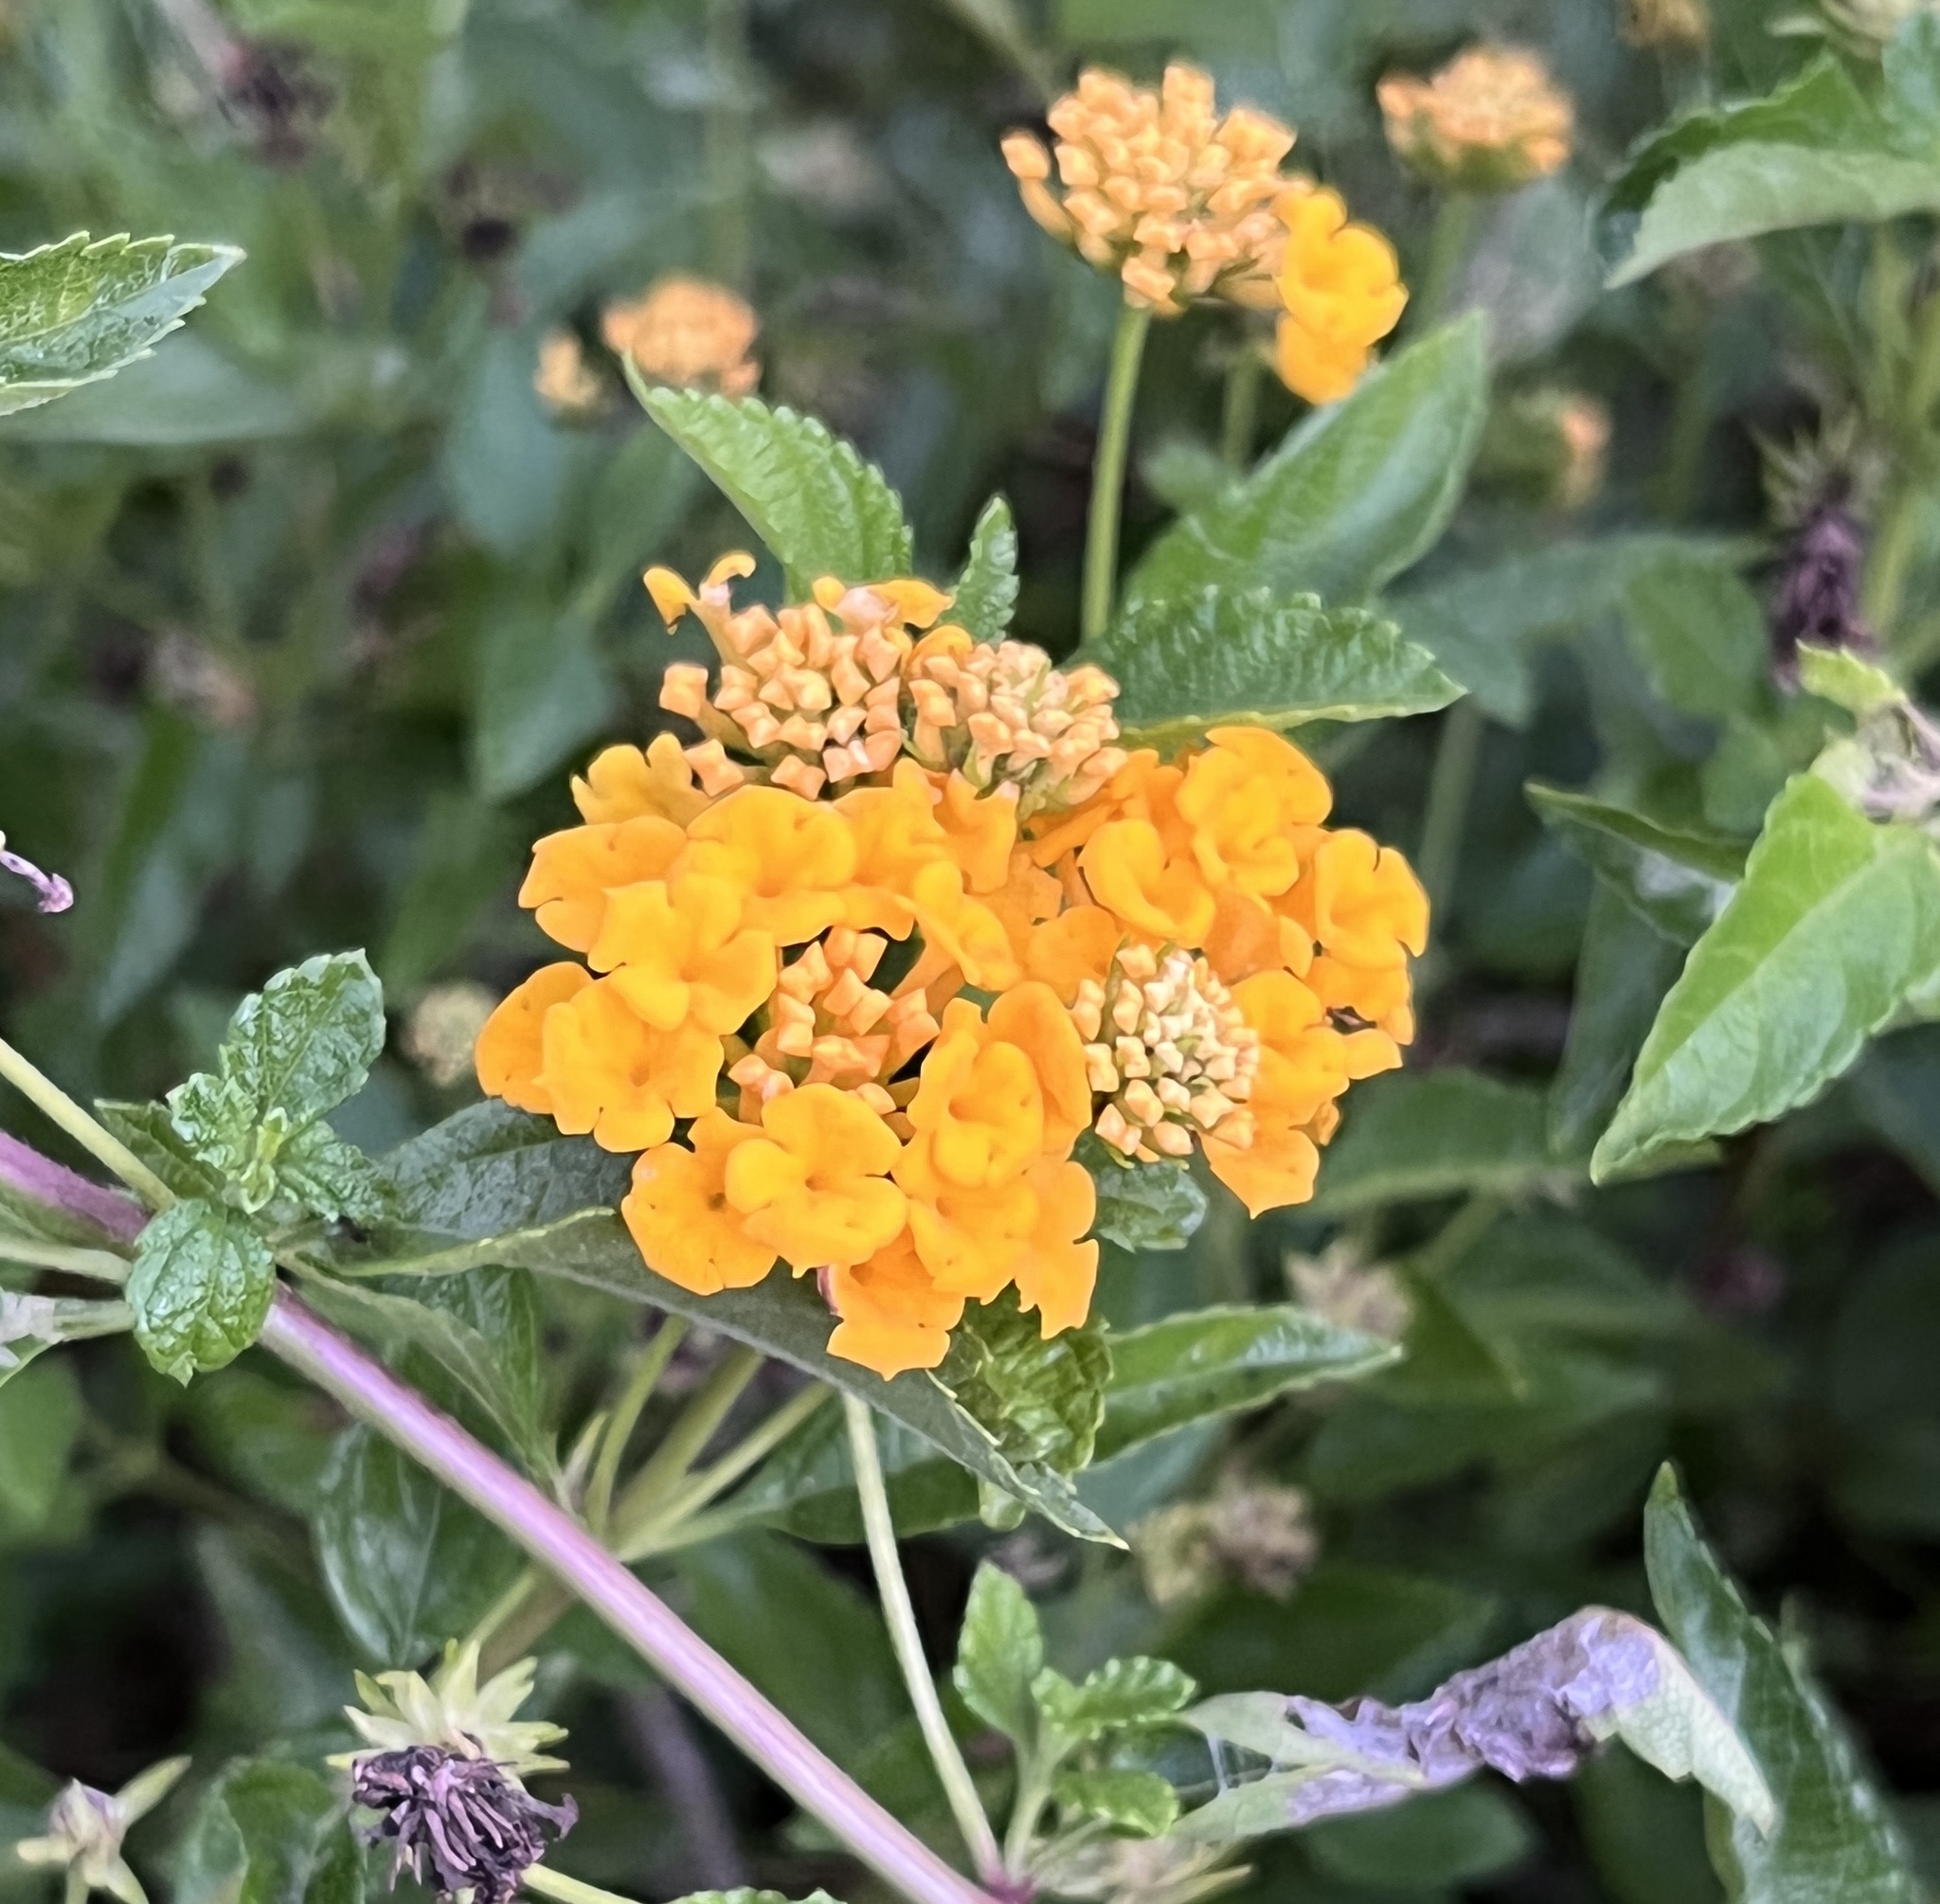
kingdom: Plantae
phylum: Tracheophyta
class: Magnoliopsida
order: Lamiales
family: Verbenaceae
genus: Lantana
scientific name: Lantana camara
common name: Lantana
